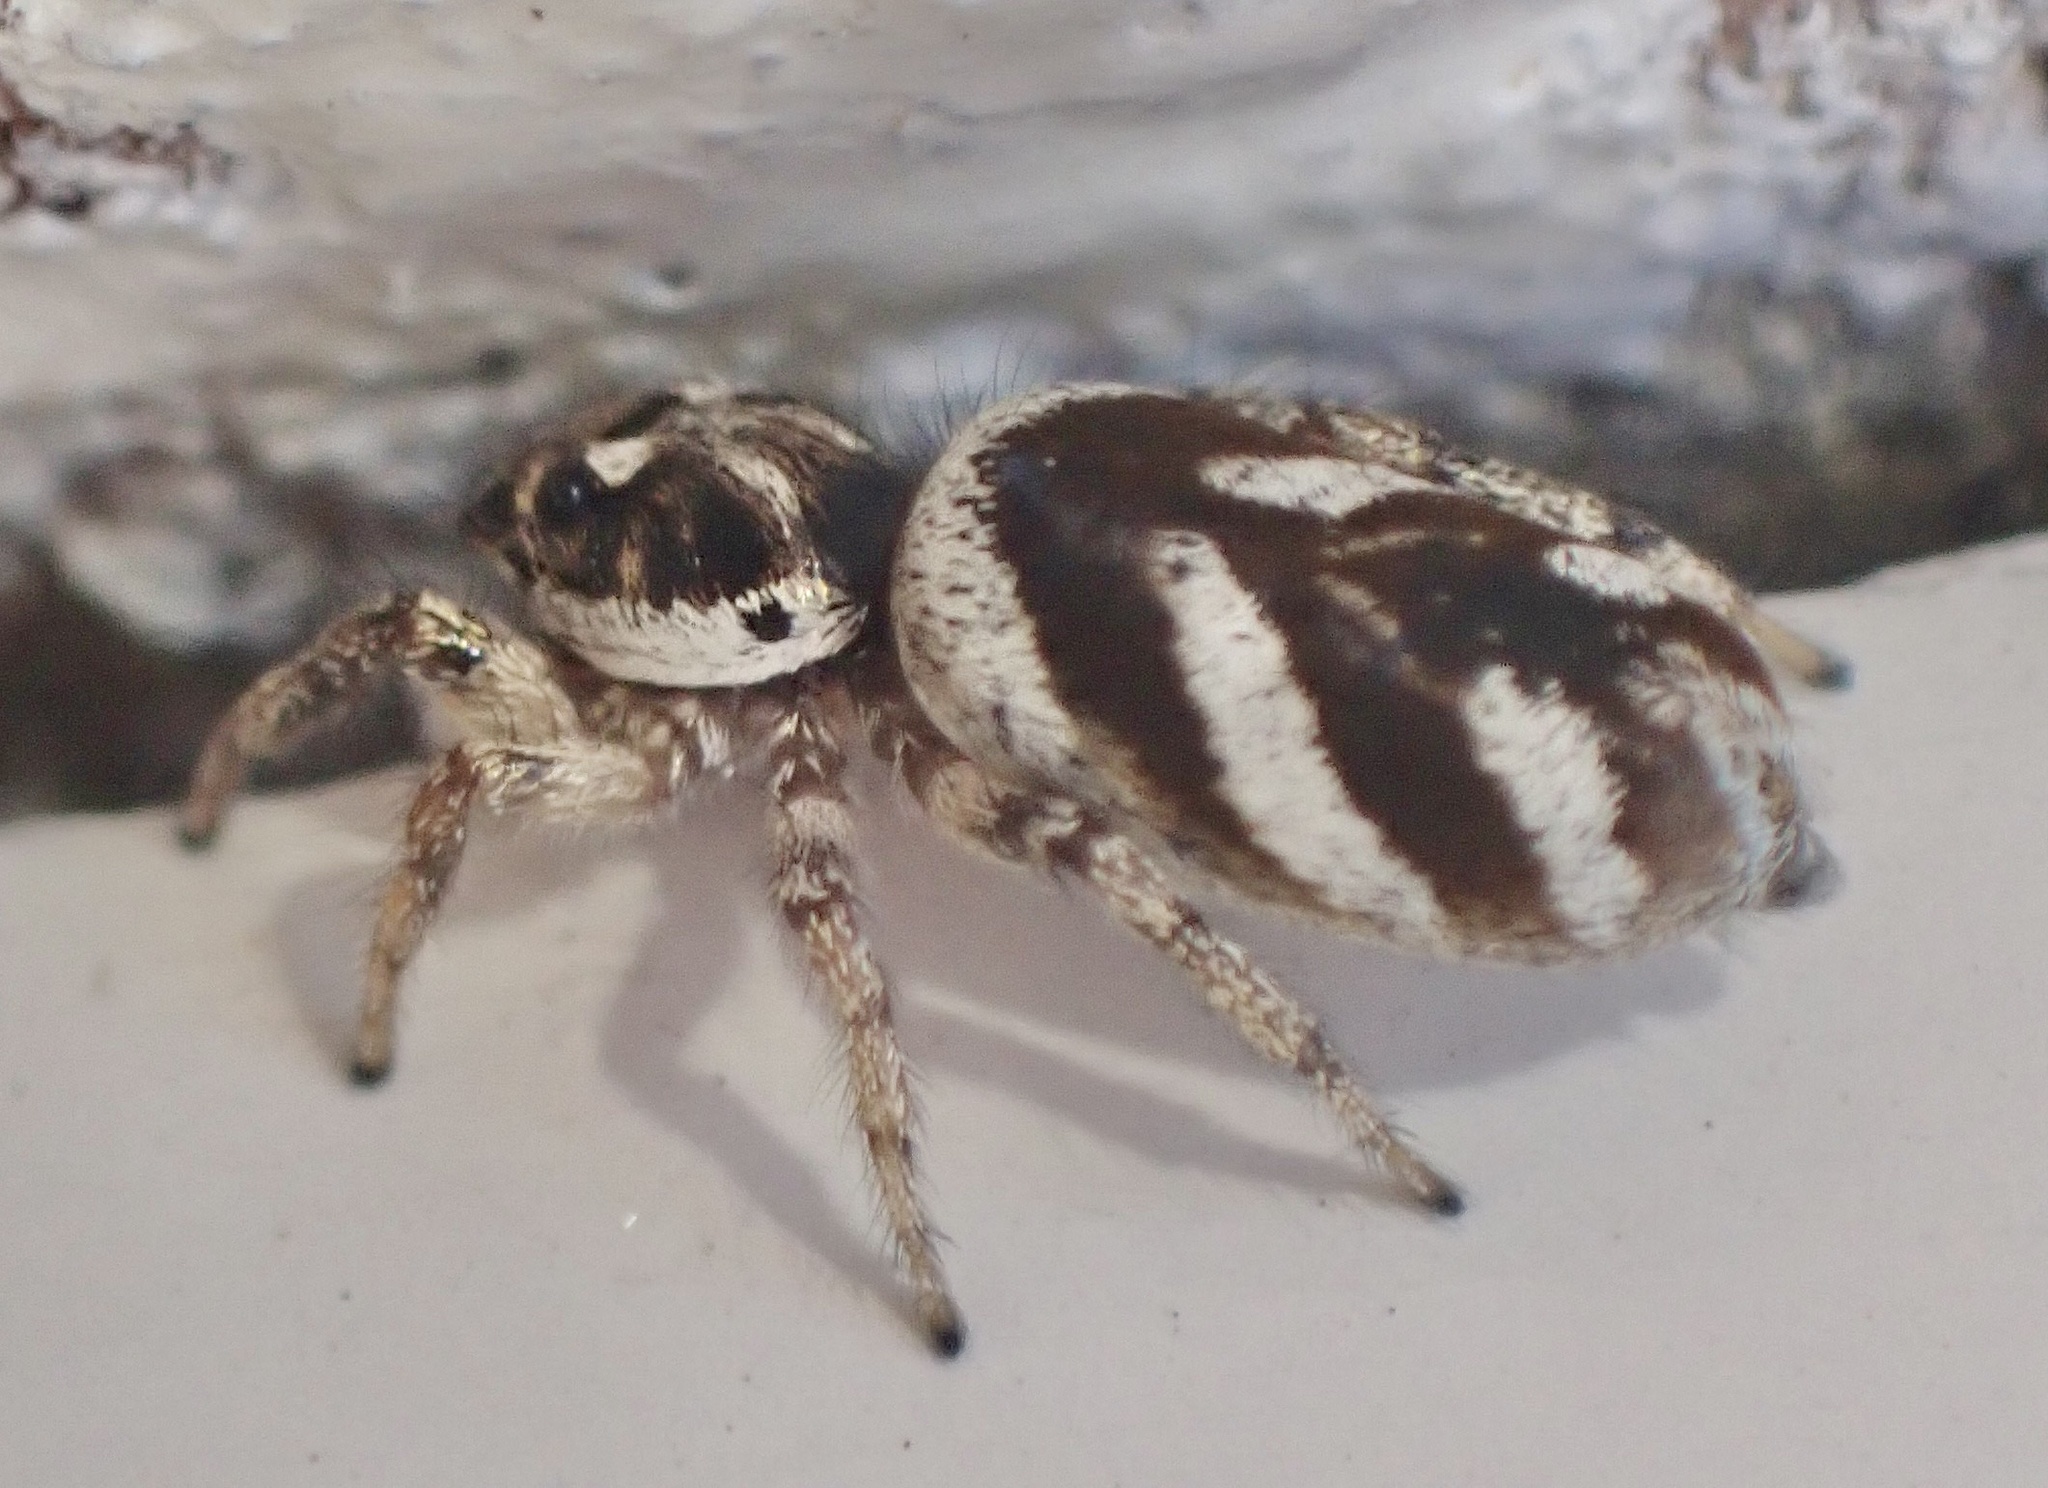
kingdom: Animalia
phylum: Arthropoda
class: Arachnida
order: Araneae
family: Salticidae
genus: Salticus
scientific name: Salticus scenicus
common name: Zebra jumper
